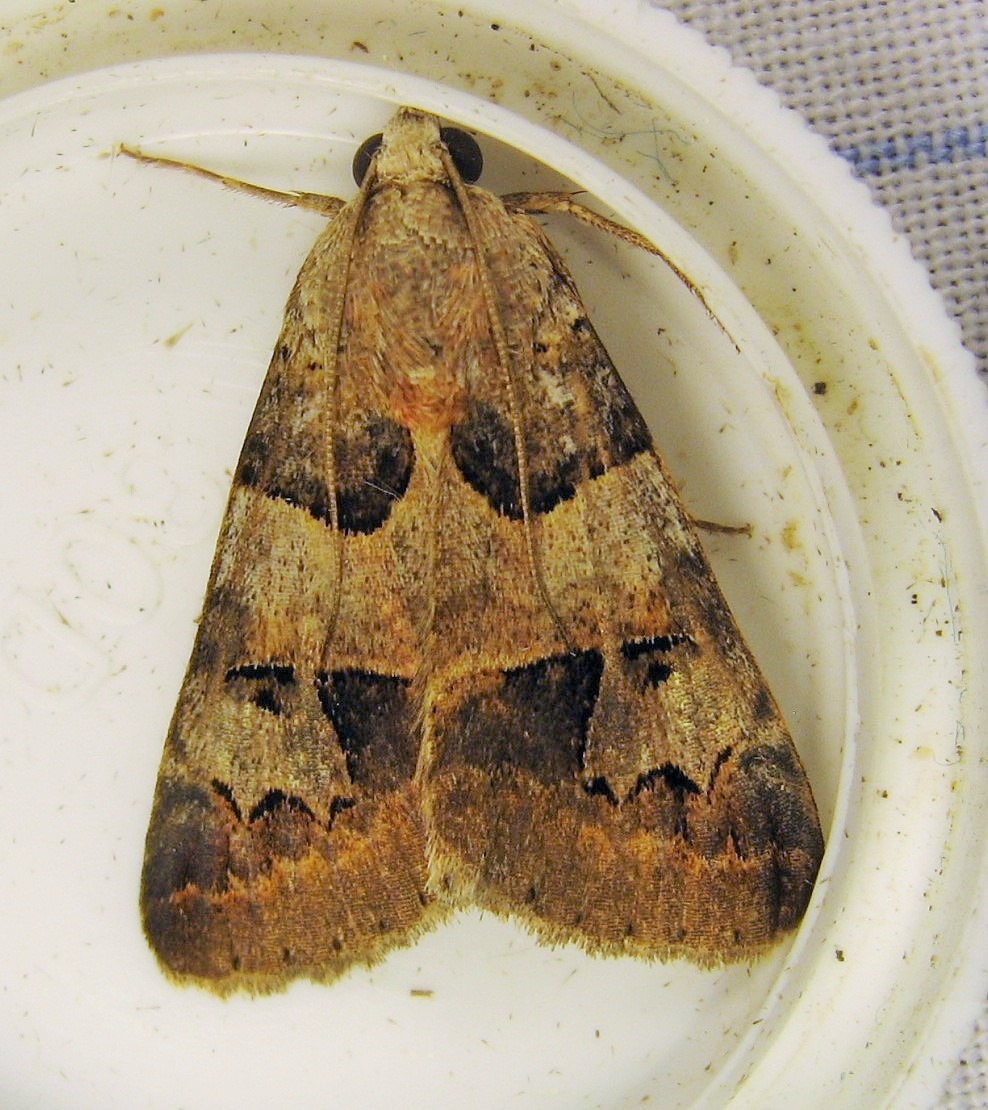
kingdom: Animalia
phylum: Arthropoda
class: Insecta
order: Lepidoptera
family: Erebidae
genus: Drasteria
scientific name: Drasteria ingeniculata
